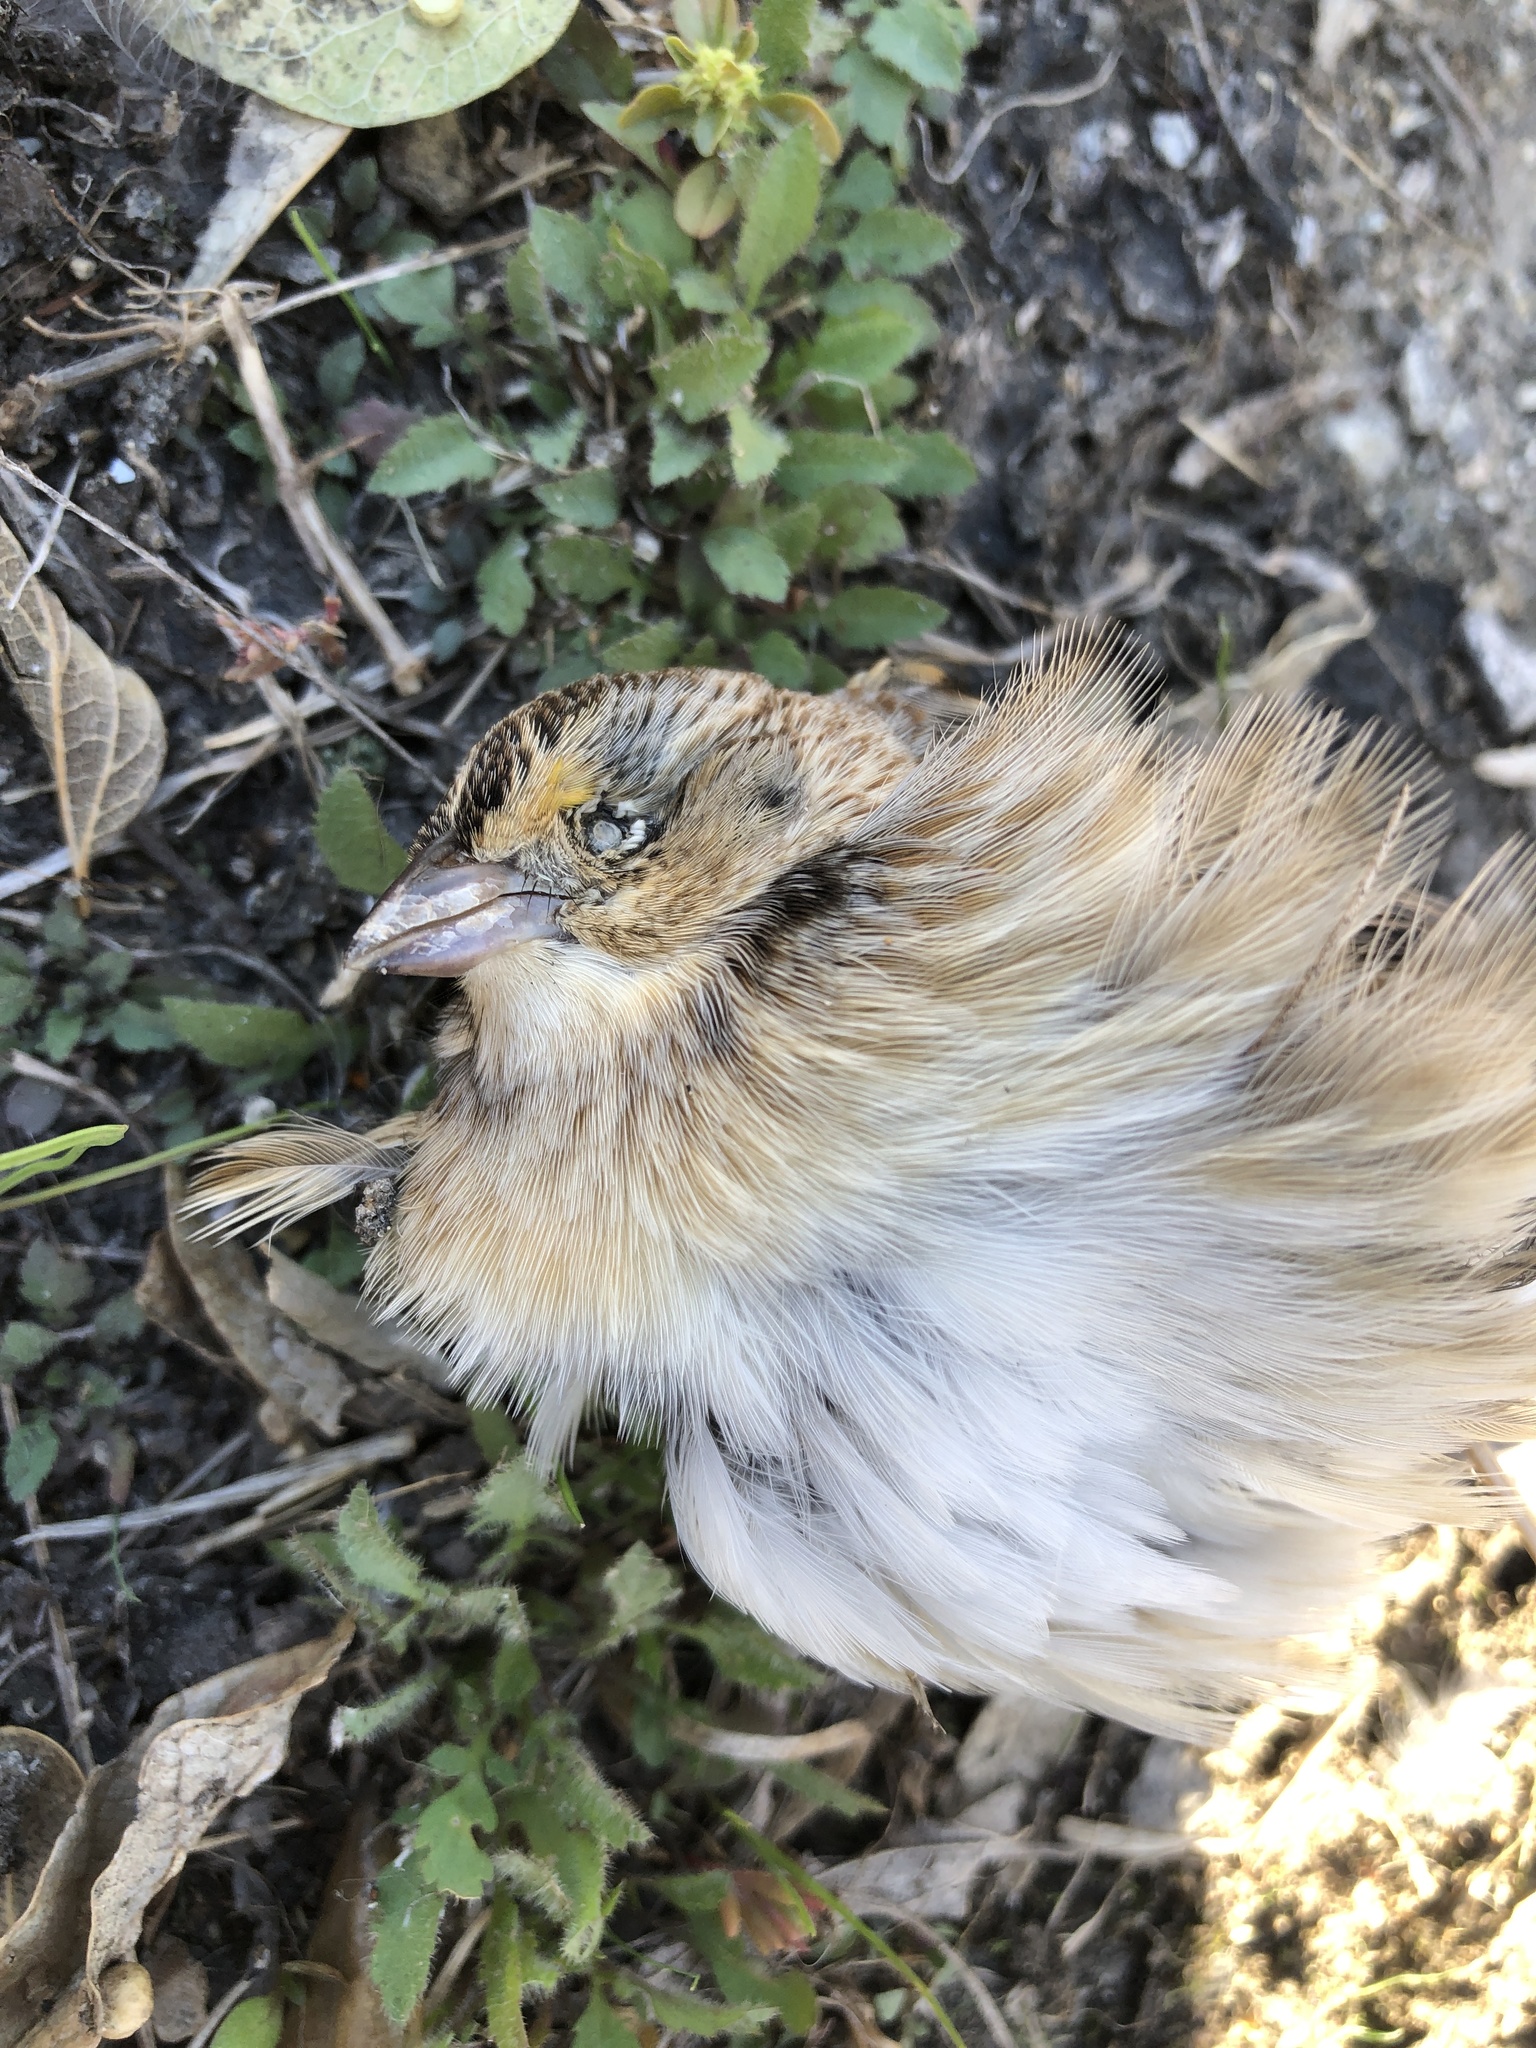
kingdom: Animalia
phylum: Chordata
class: Aves
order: Passeriformes
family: Passerellidae
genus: Ammodramus
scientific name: Ammodramus savannarum
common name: Grasshopper sparrow
